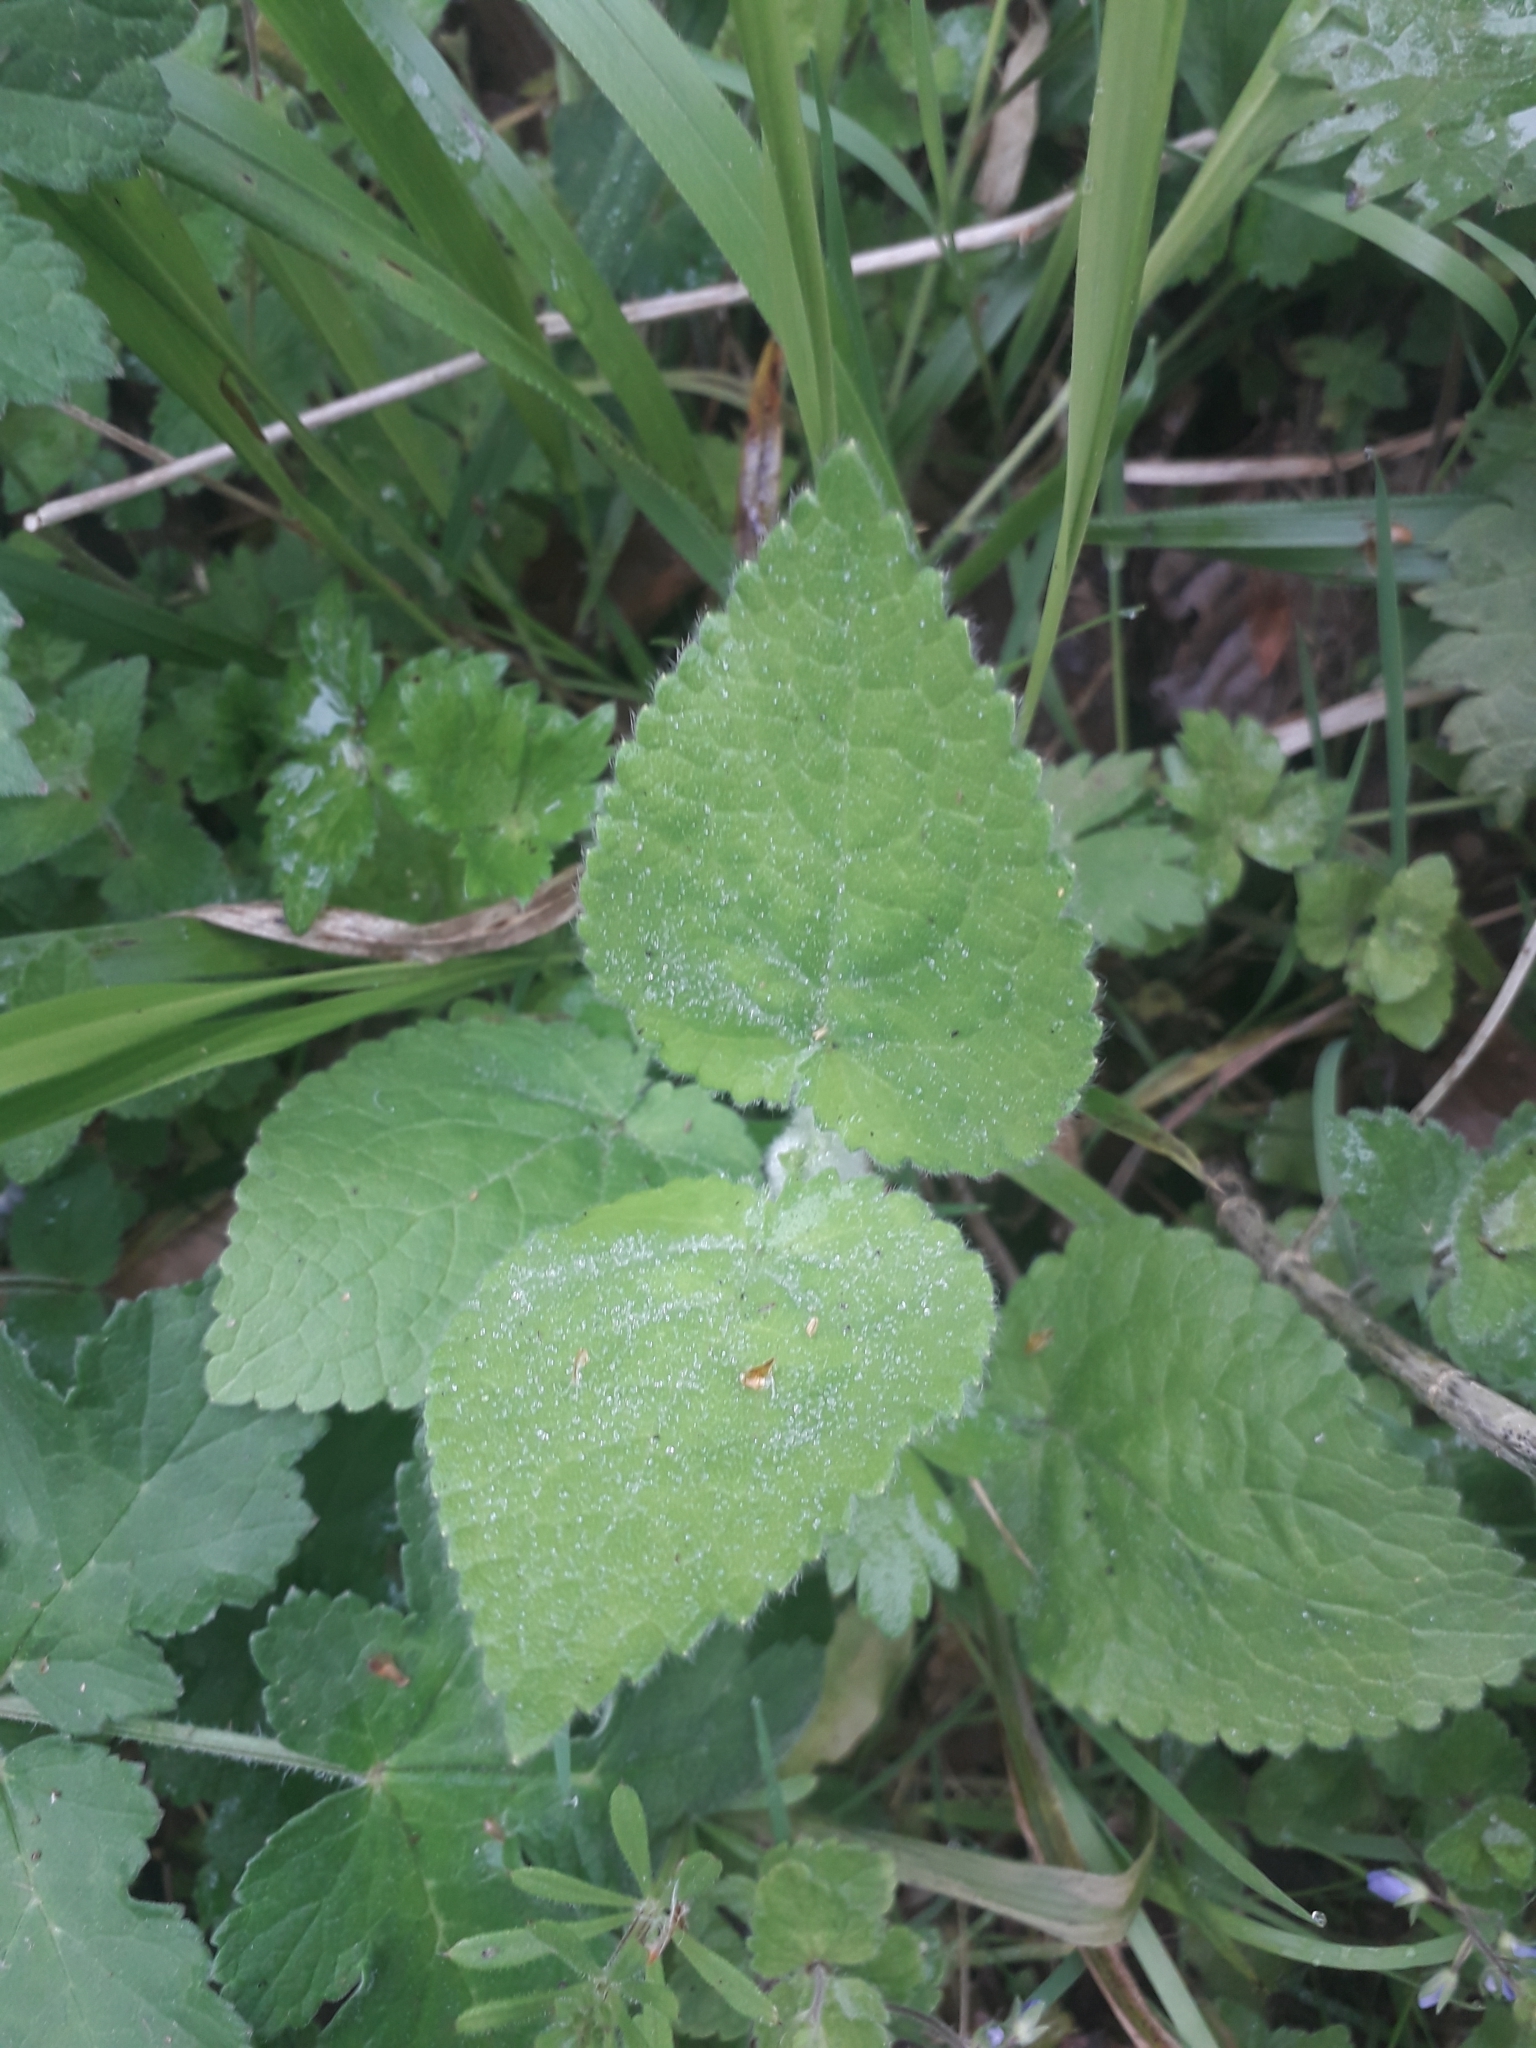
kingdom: Plantae
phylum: Tracheophyta
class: Magnoliopsida
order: Lamiales
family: Lamiaceae
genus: Stachys
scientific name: Stachys sylvatica
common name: Hedge woundwort
